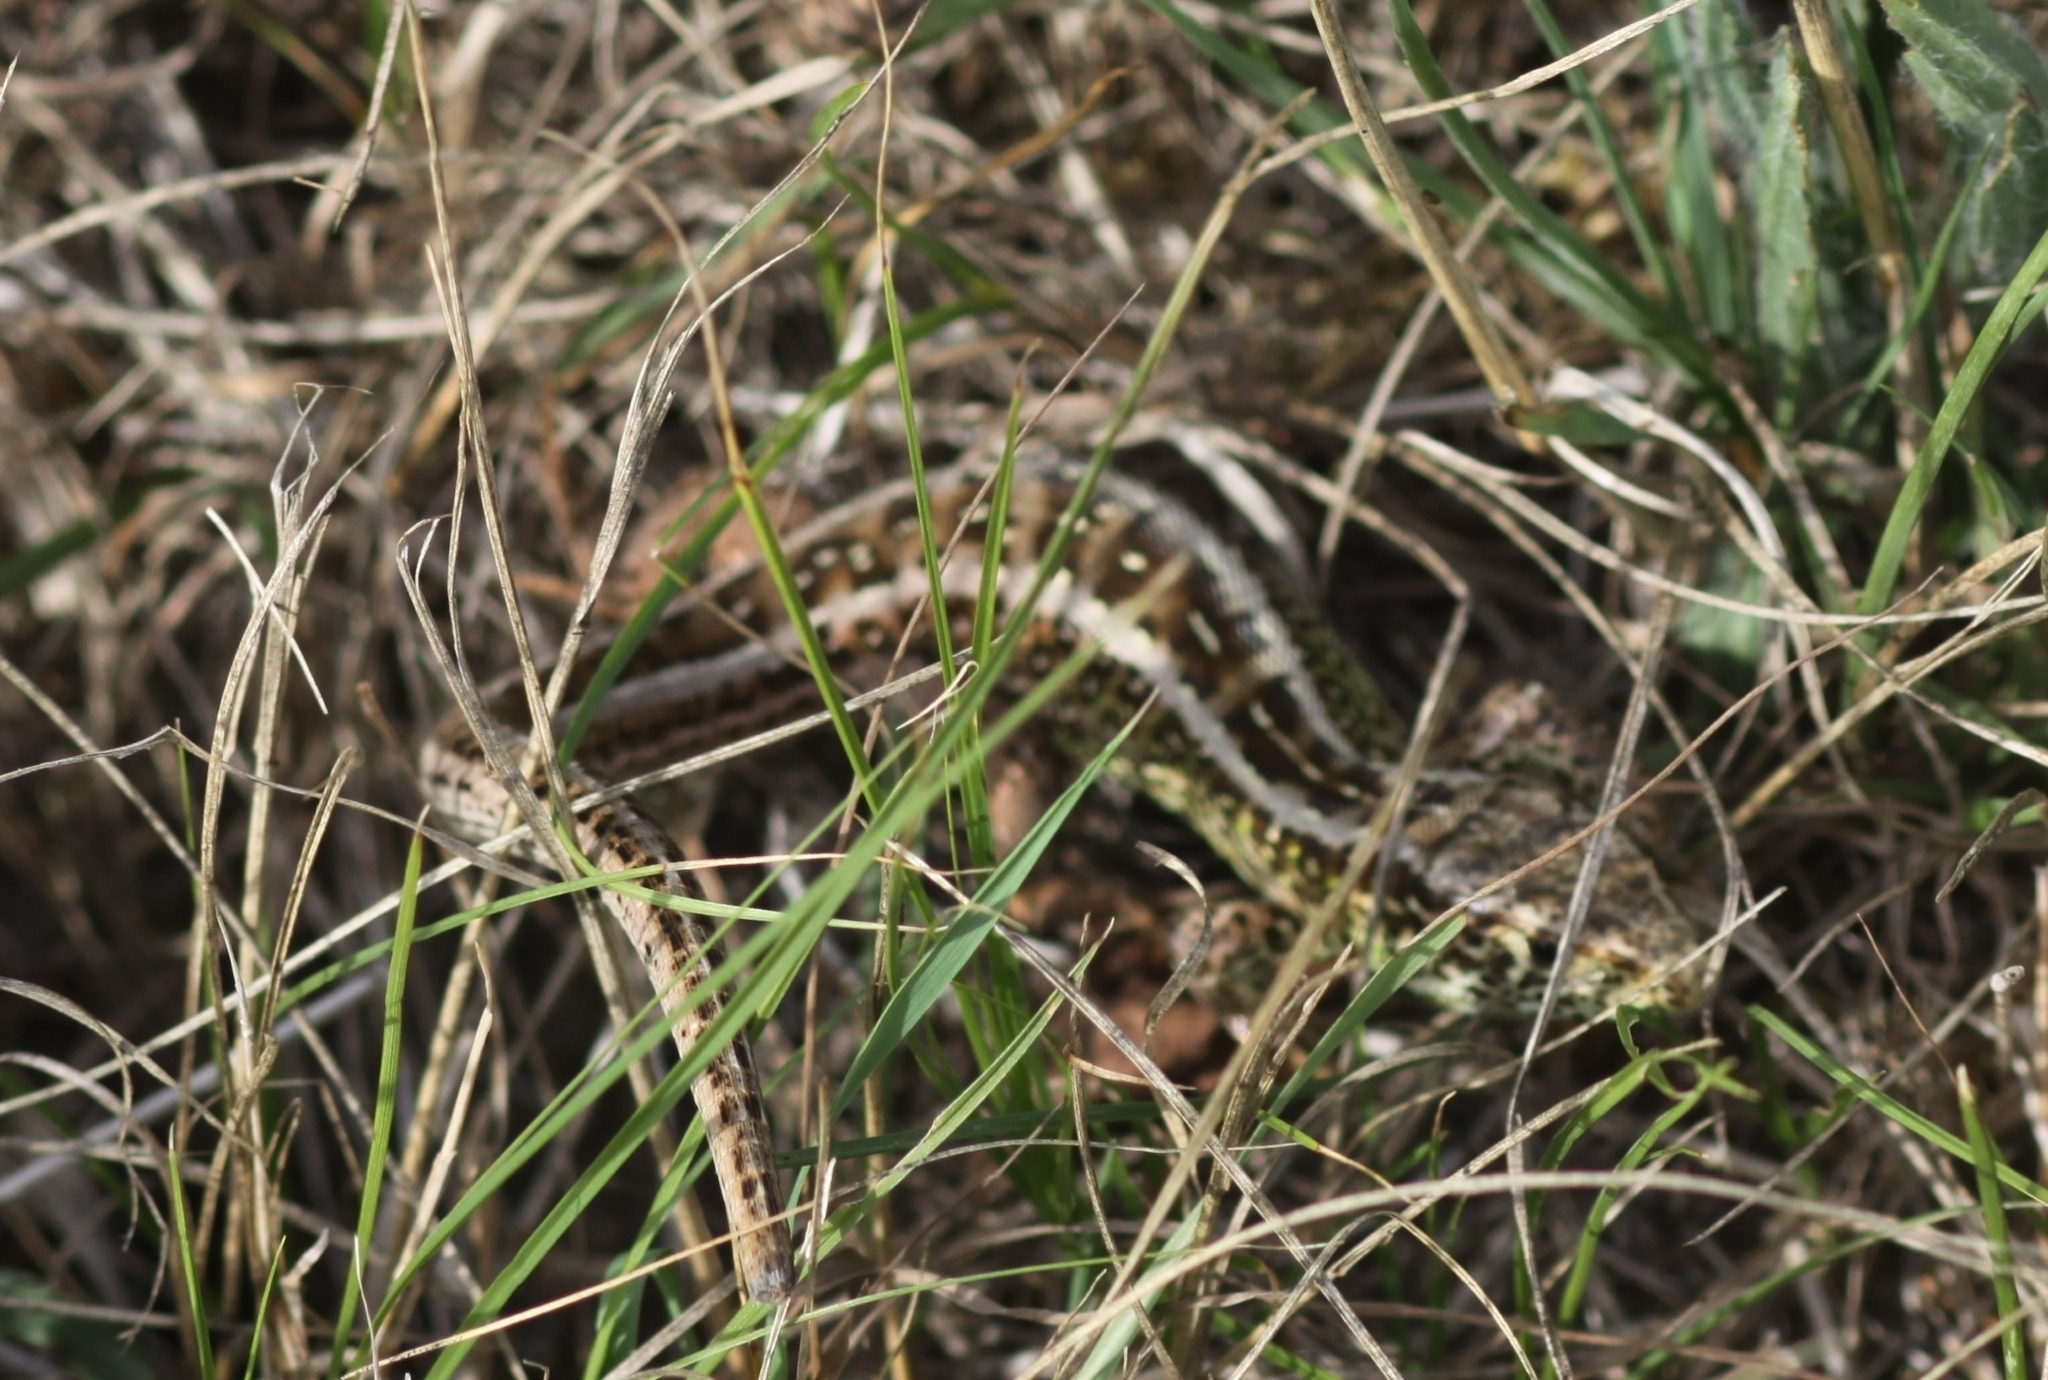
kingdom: Animalia
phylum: Chordata
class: Squamata
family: Lacertidae
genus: Lacerta
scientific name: Lacerta agilis
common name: Sand lizard
